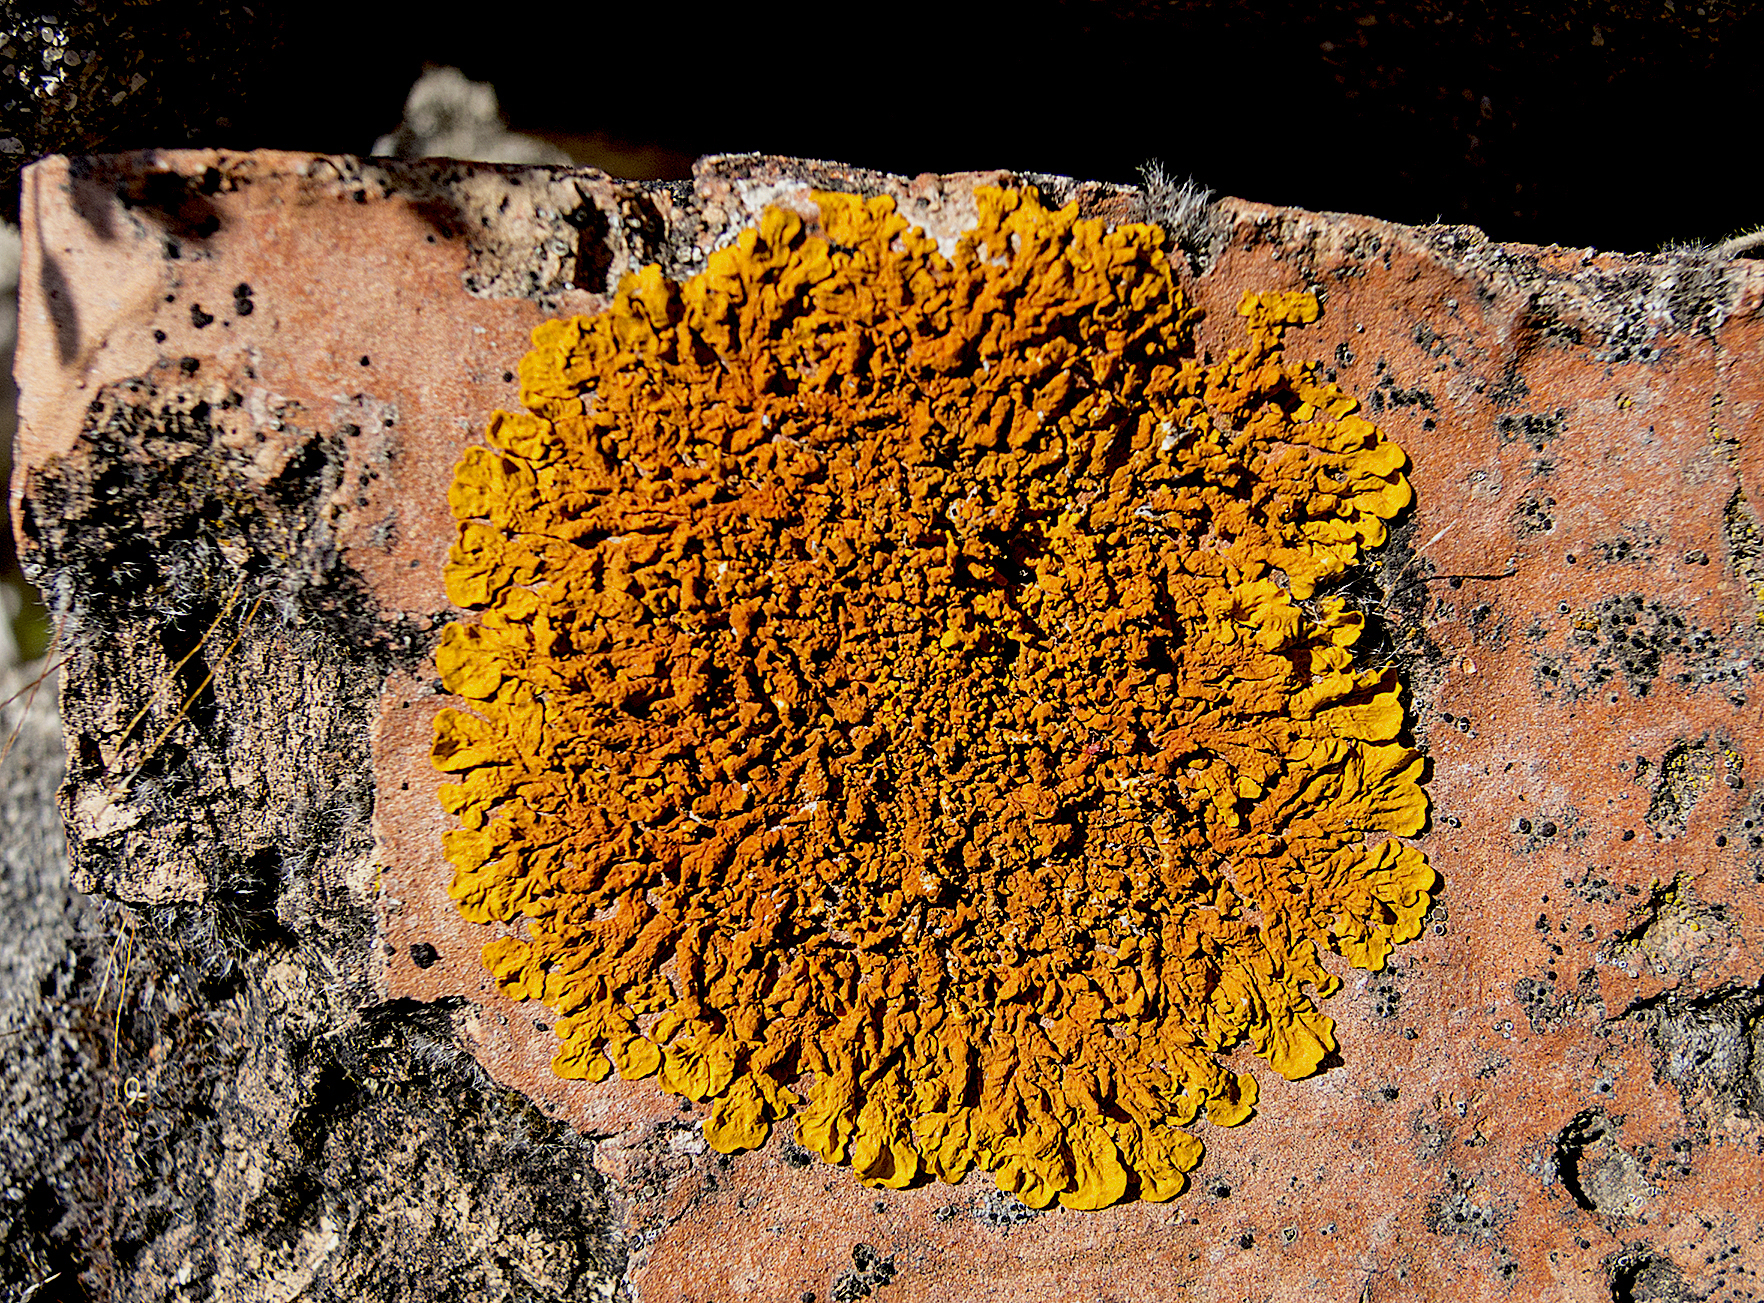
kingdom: Fungi
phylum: Ascomycota
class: Lecanoromycetes
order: Teloschistales
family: Teloschistaceae
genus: Xanthoria
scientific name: Xanthoria calcicola
